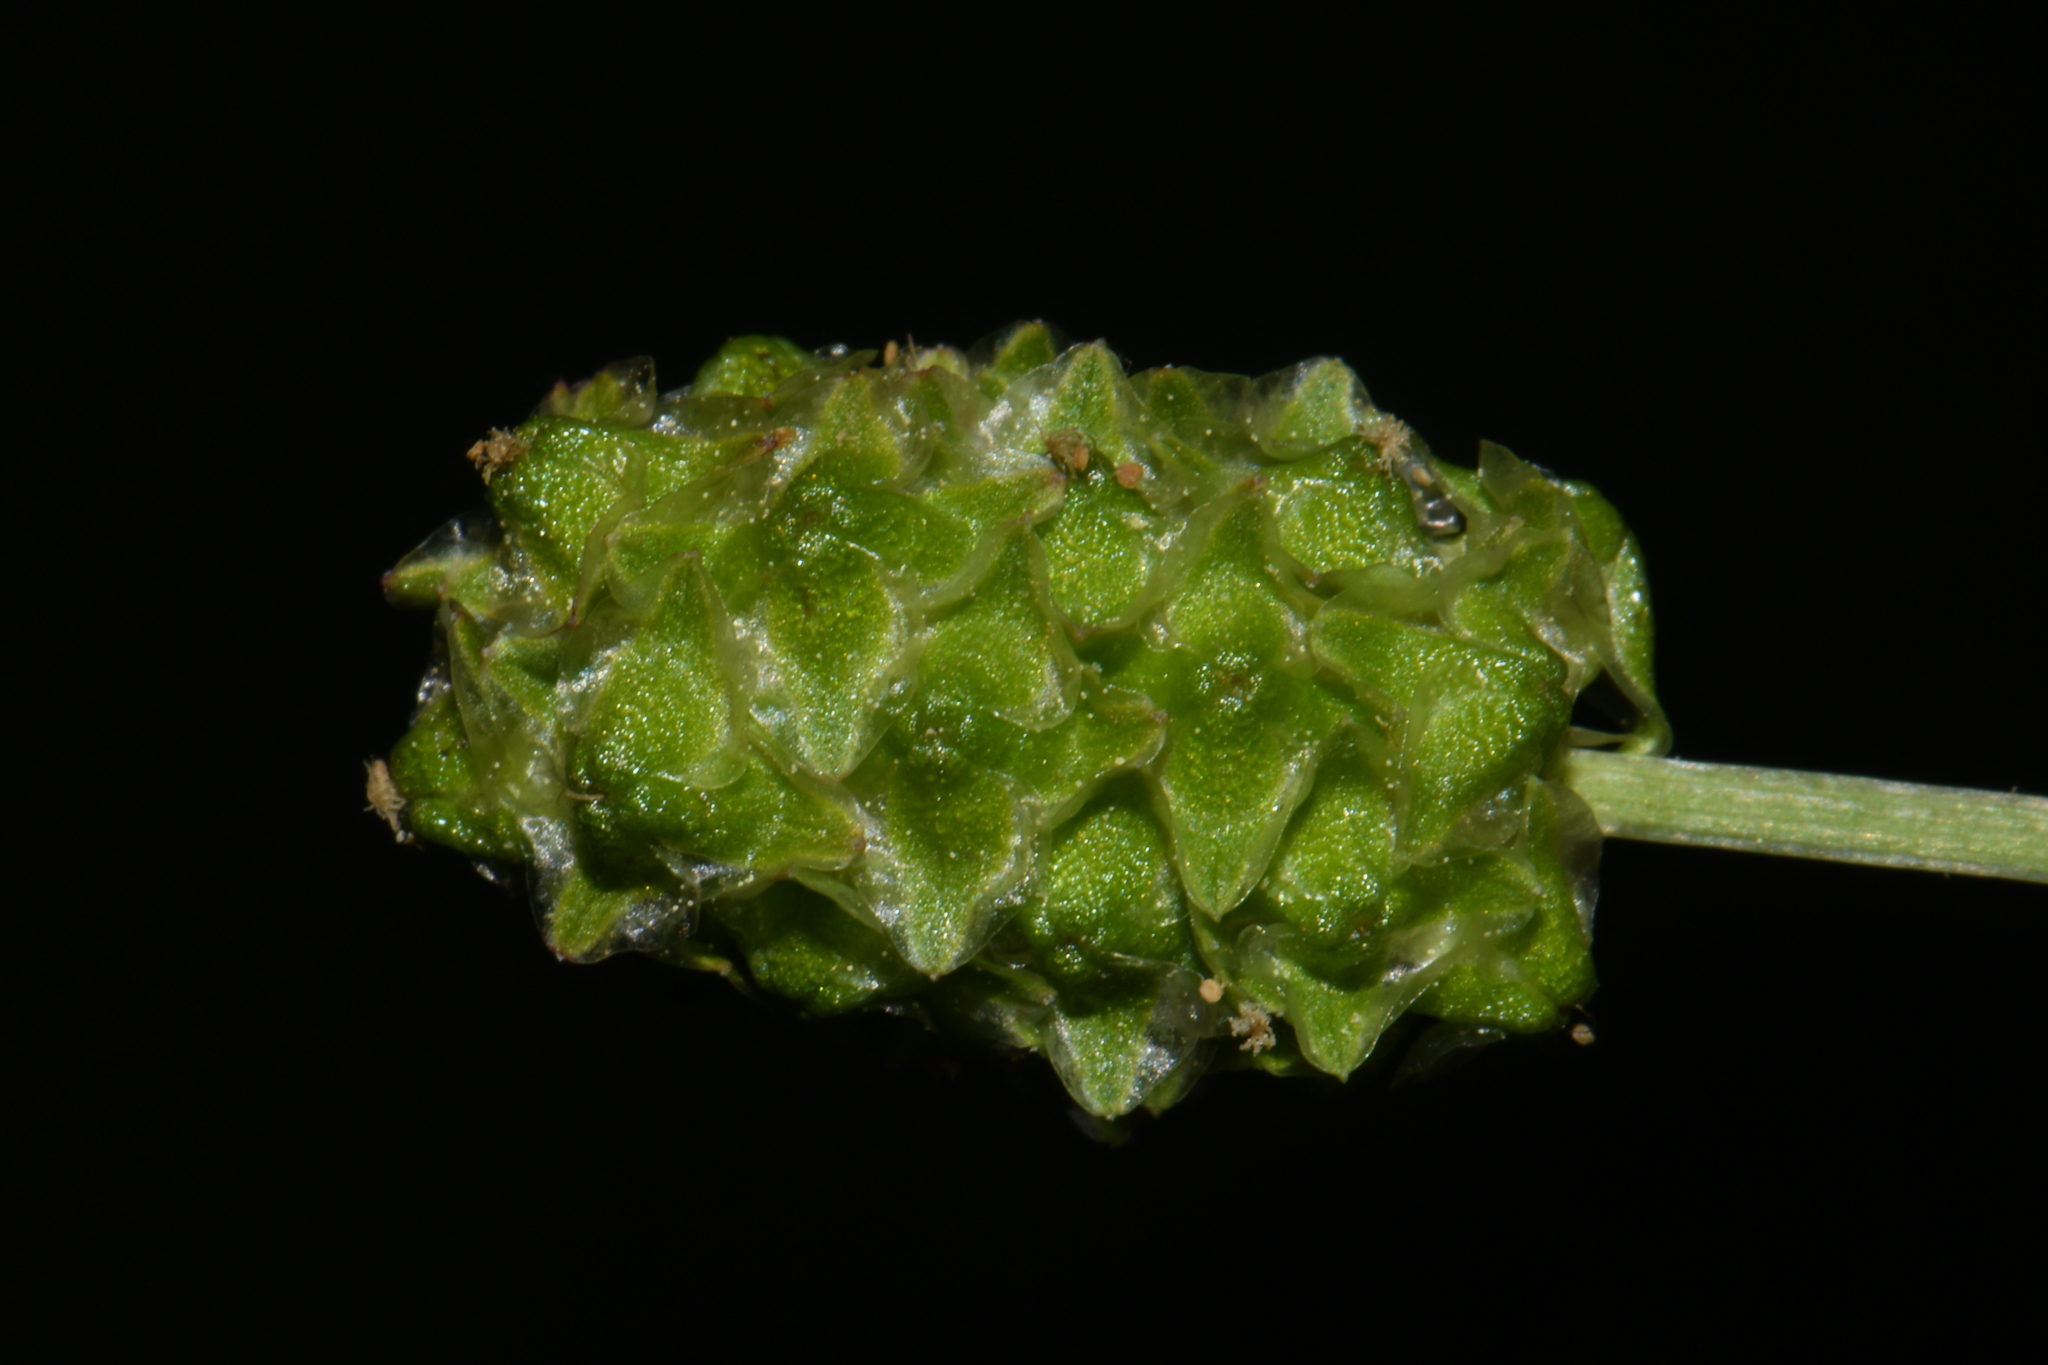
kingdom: Plantae
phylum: Tracheophyta
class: Magnoliopsida
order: Rosales
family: Rosaceae
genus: Poteridium
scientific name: Poteridium occidentale
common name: Western burnet
